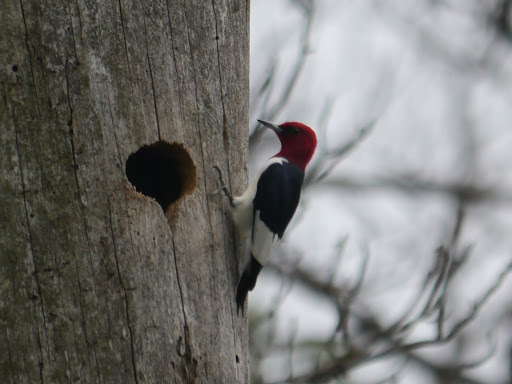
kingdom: Animalia
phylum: Chordata
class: Aves
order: Piciformes
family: Picidae
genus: Melanerpes
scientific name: Melanerpes erythrocephalus
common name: Red-headed woodpecker
